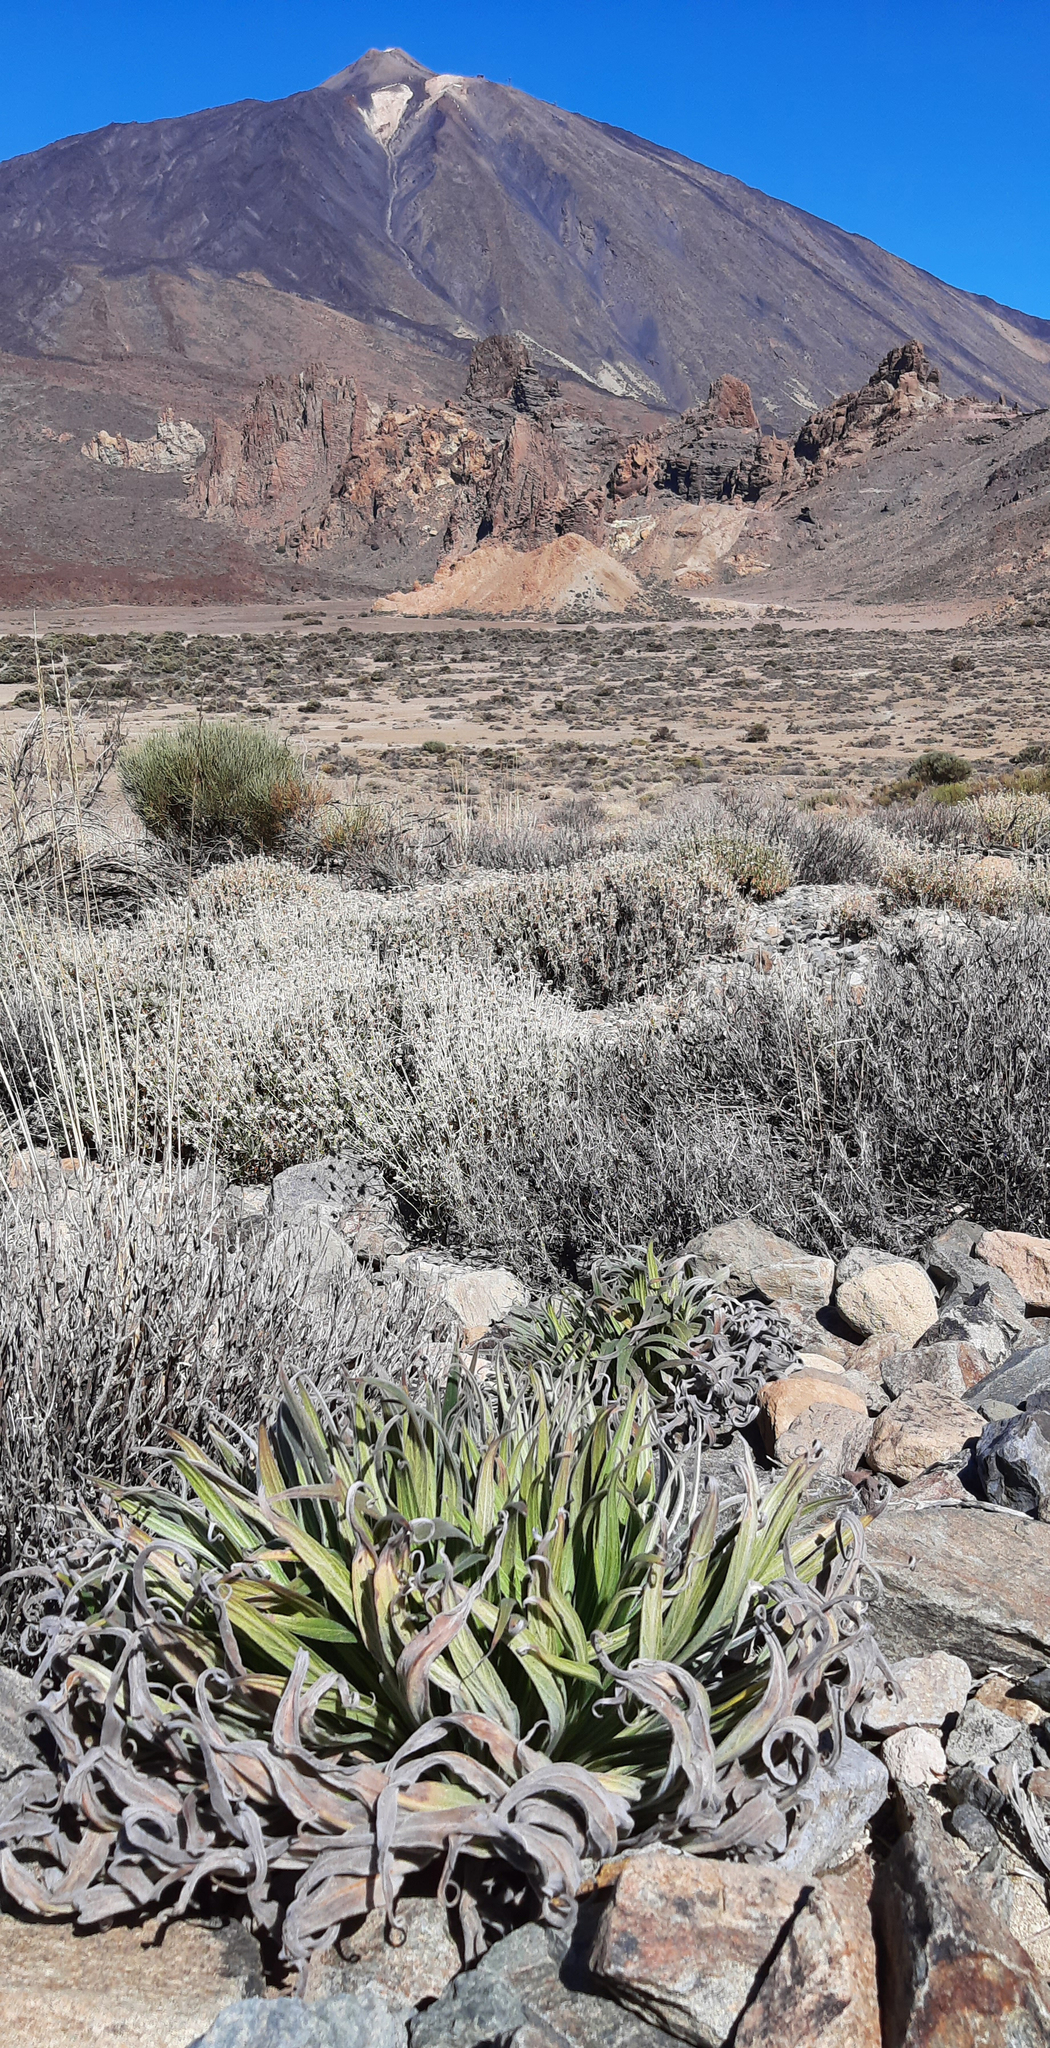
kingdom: Plantae
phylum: Tracheophyta
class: Magnoliopsida
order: Boraginales
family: Boraginaceae
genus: Echium
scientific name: Echium wildpretii
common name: Tower-of-jewels
